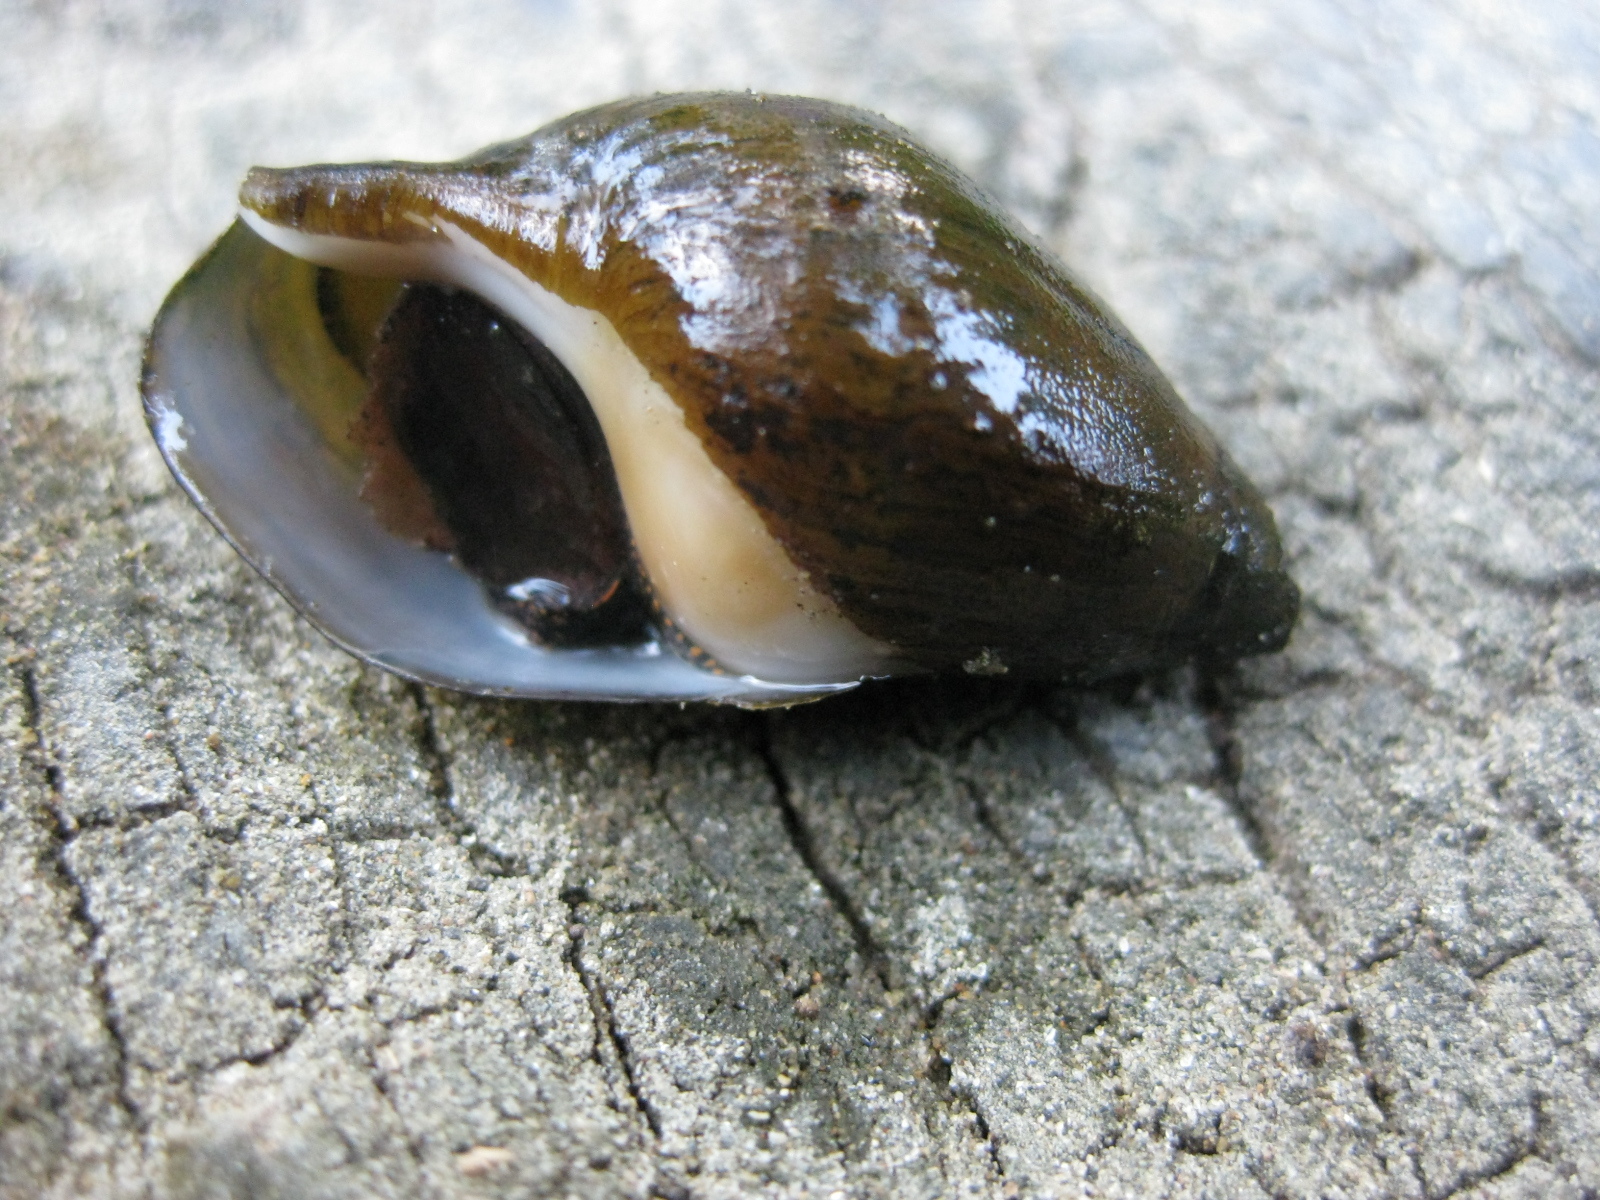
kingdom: Animalia
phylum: Mollusca
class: Gastropoda
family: Zemelanopsidae
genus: Zemelanopsis
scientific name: Zemelanopsis trifasciata
